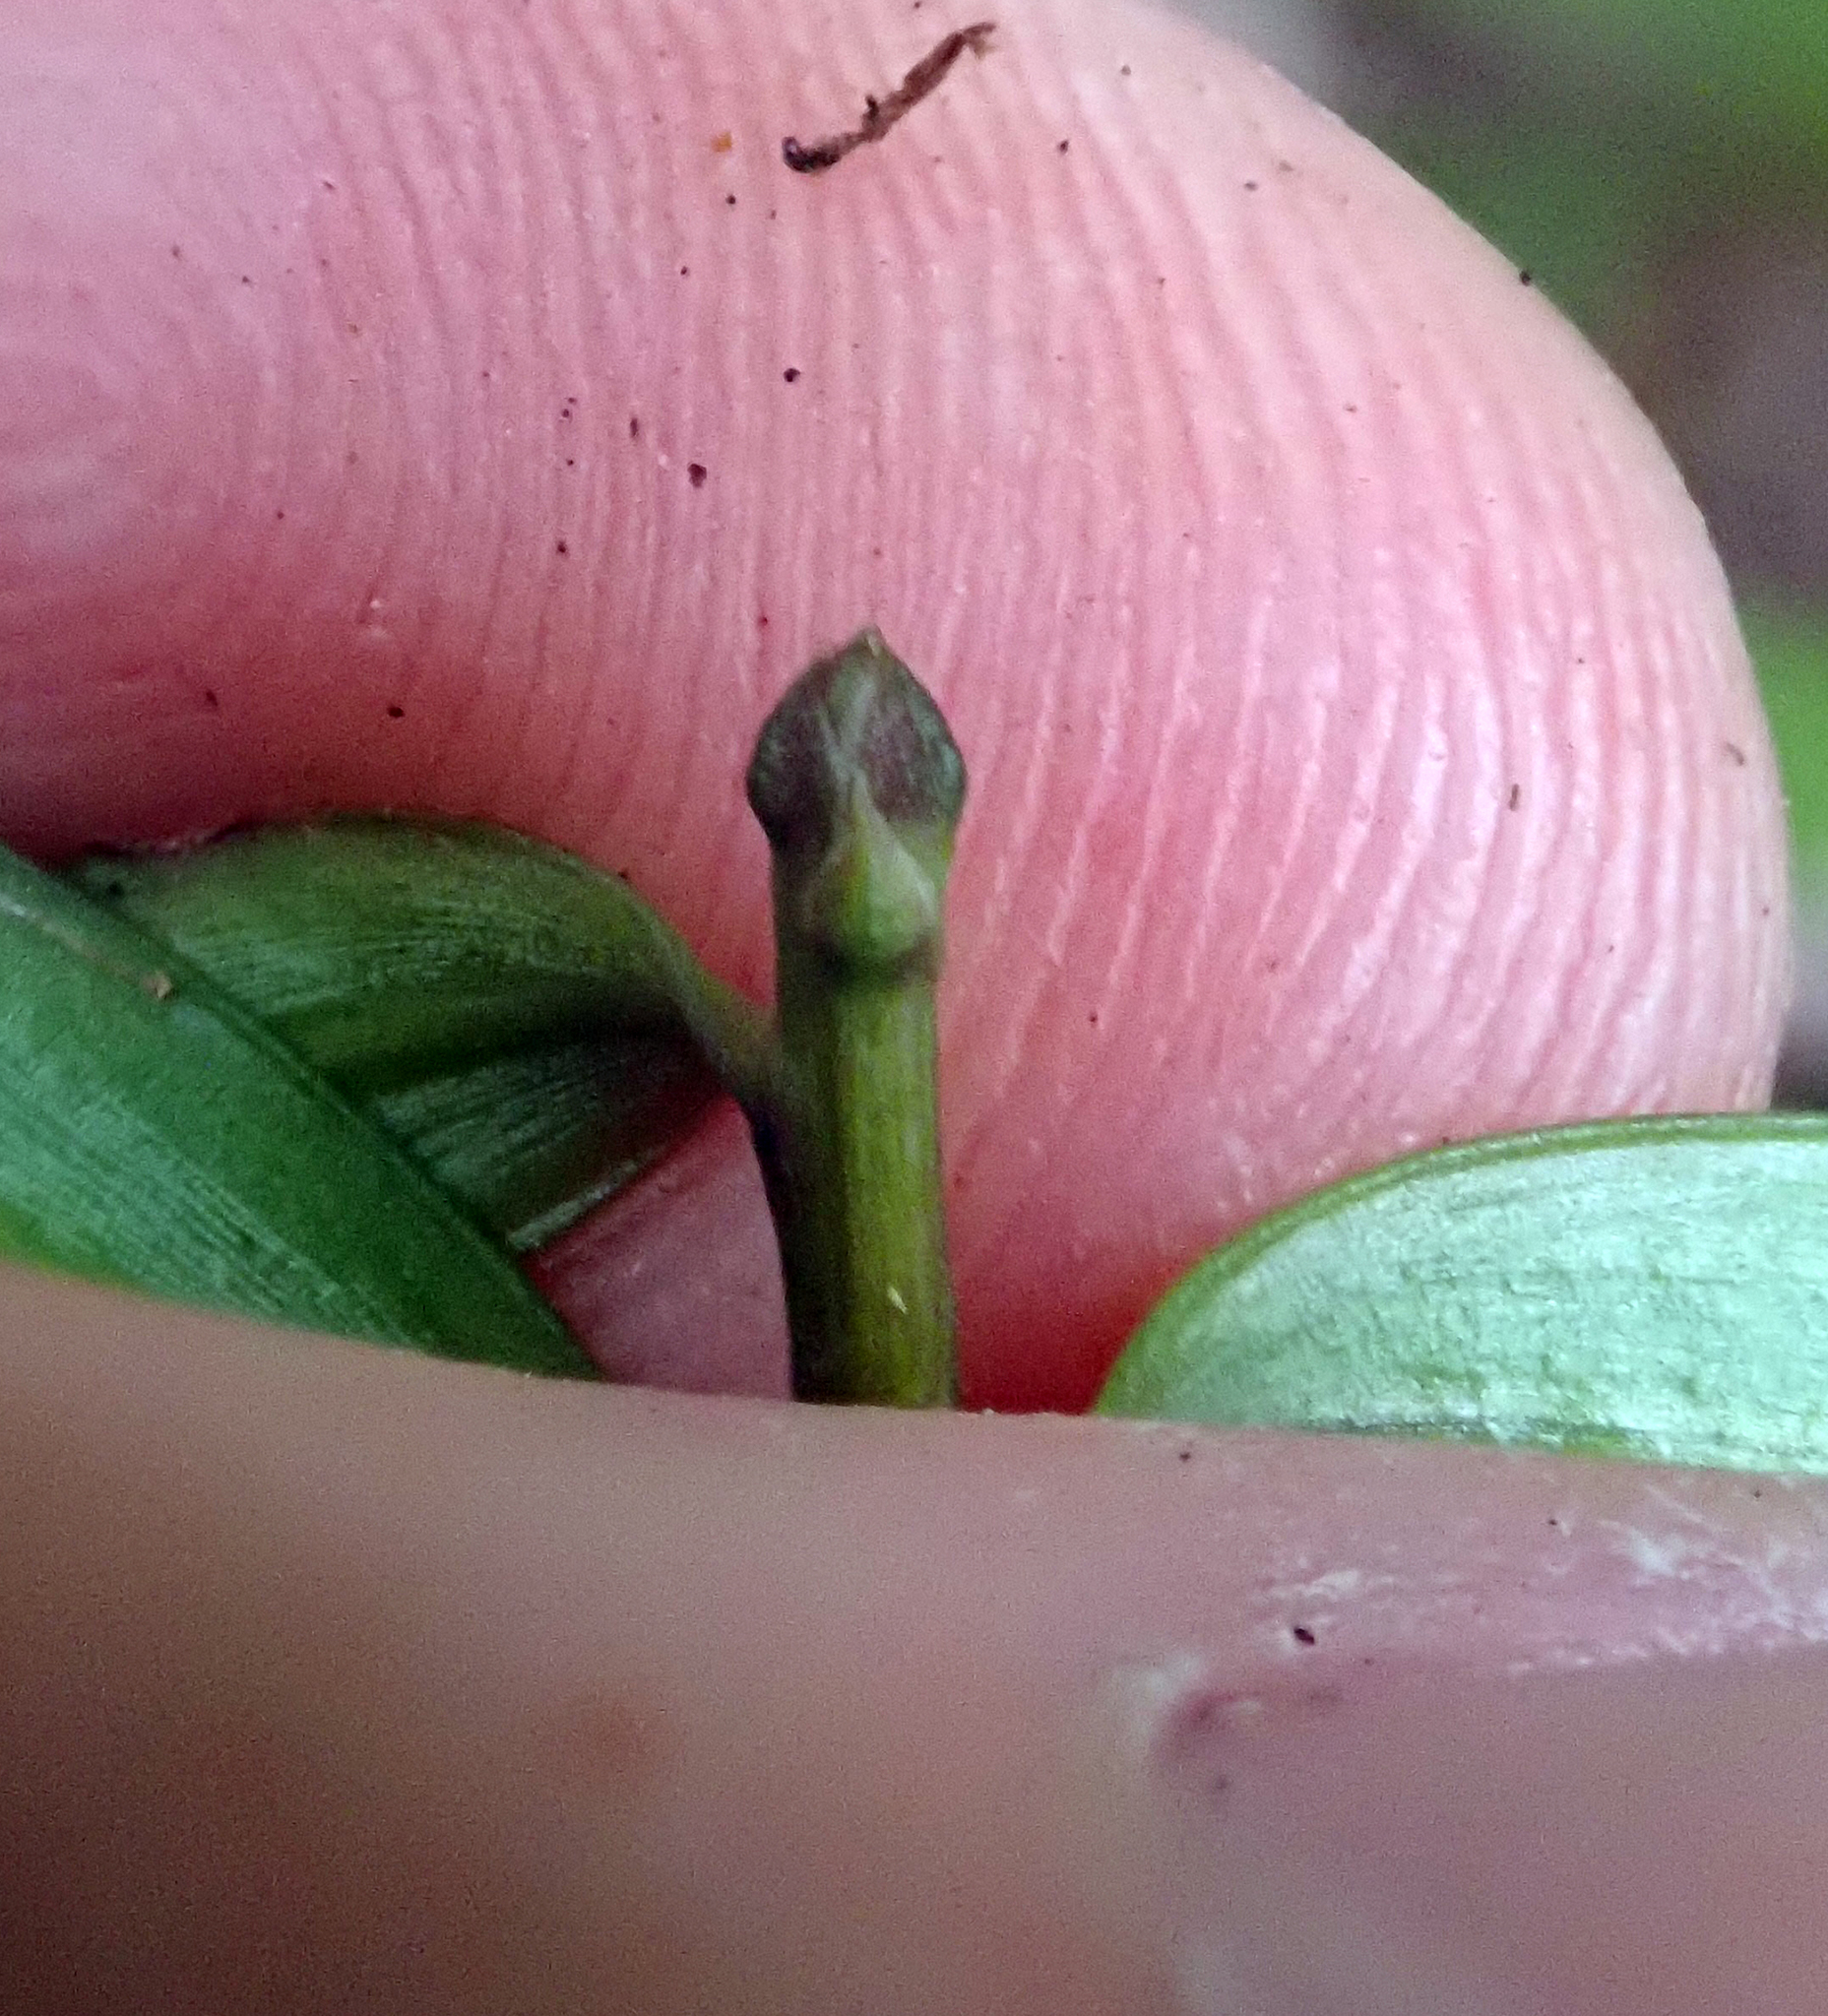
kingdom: Plantae
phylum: Tracheophyta
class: Pinopsida
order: Pinales
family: Podocarpaceae
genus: Podocarpus
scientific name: Podocarpus laetus
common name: Hall's totara
